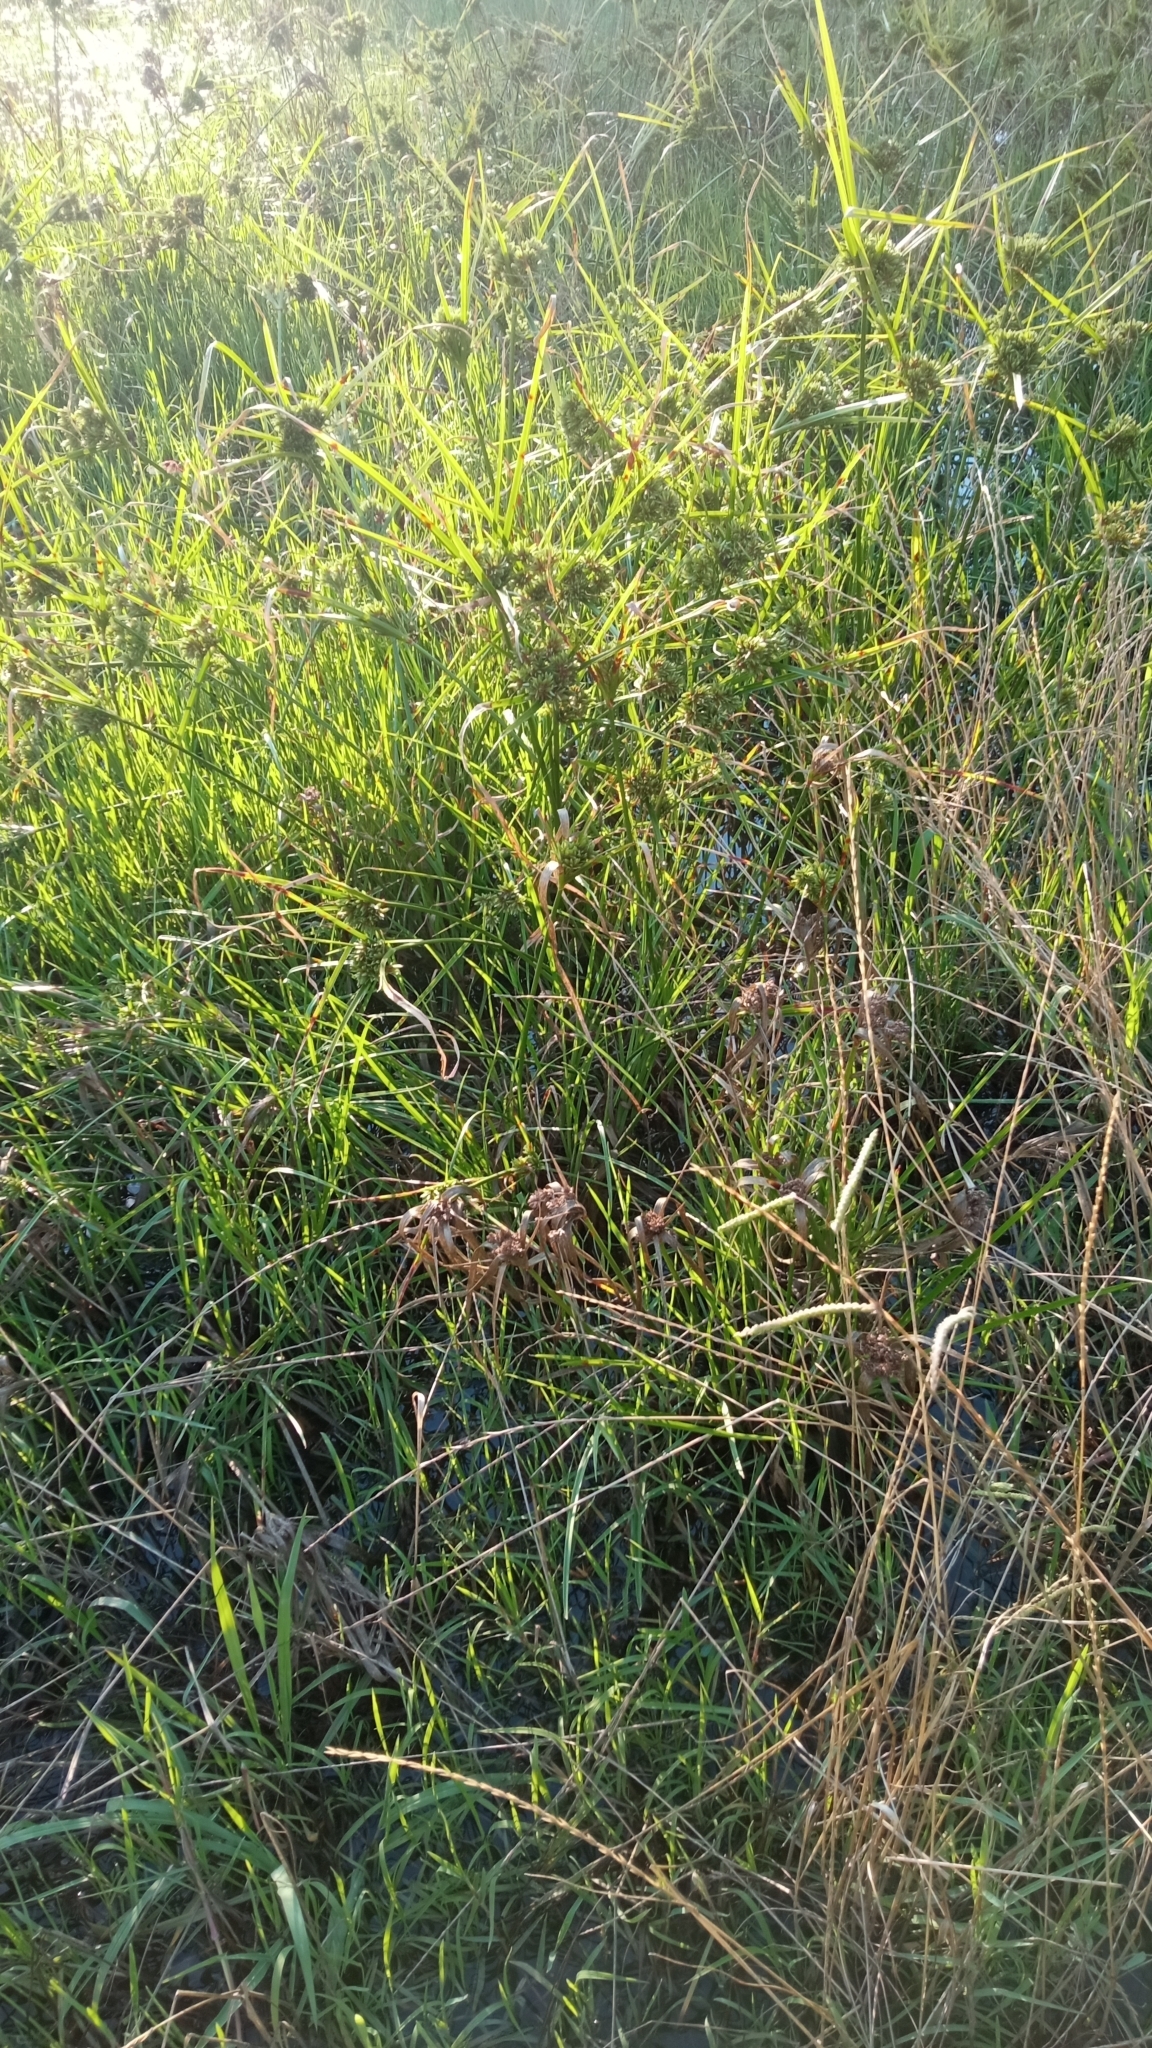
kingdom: Plantae
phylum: Tracheophyta
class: Liliopsida
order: Poales
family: Cyperaceae
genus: Cyperus
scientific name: Cyperus eragrostis
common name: Tall flatsedge
